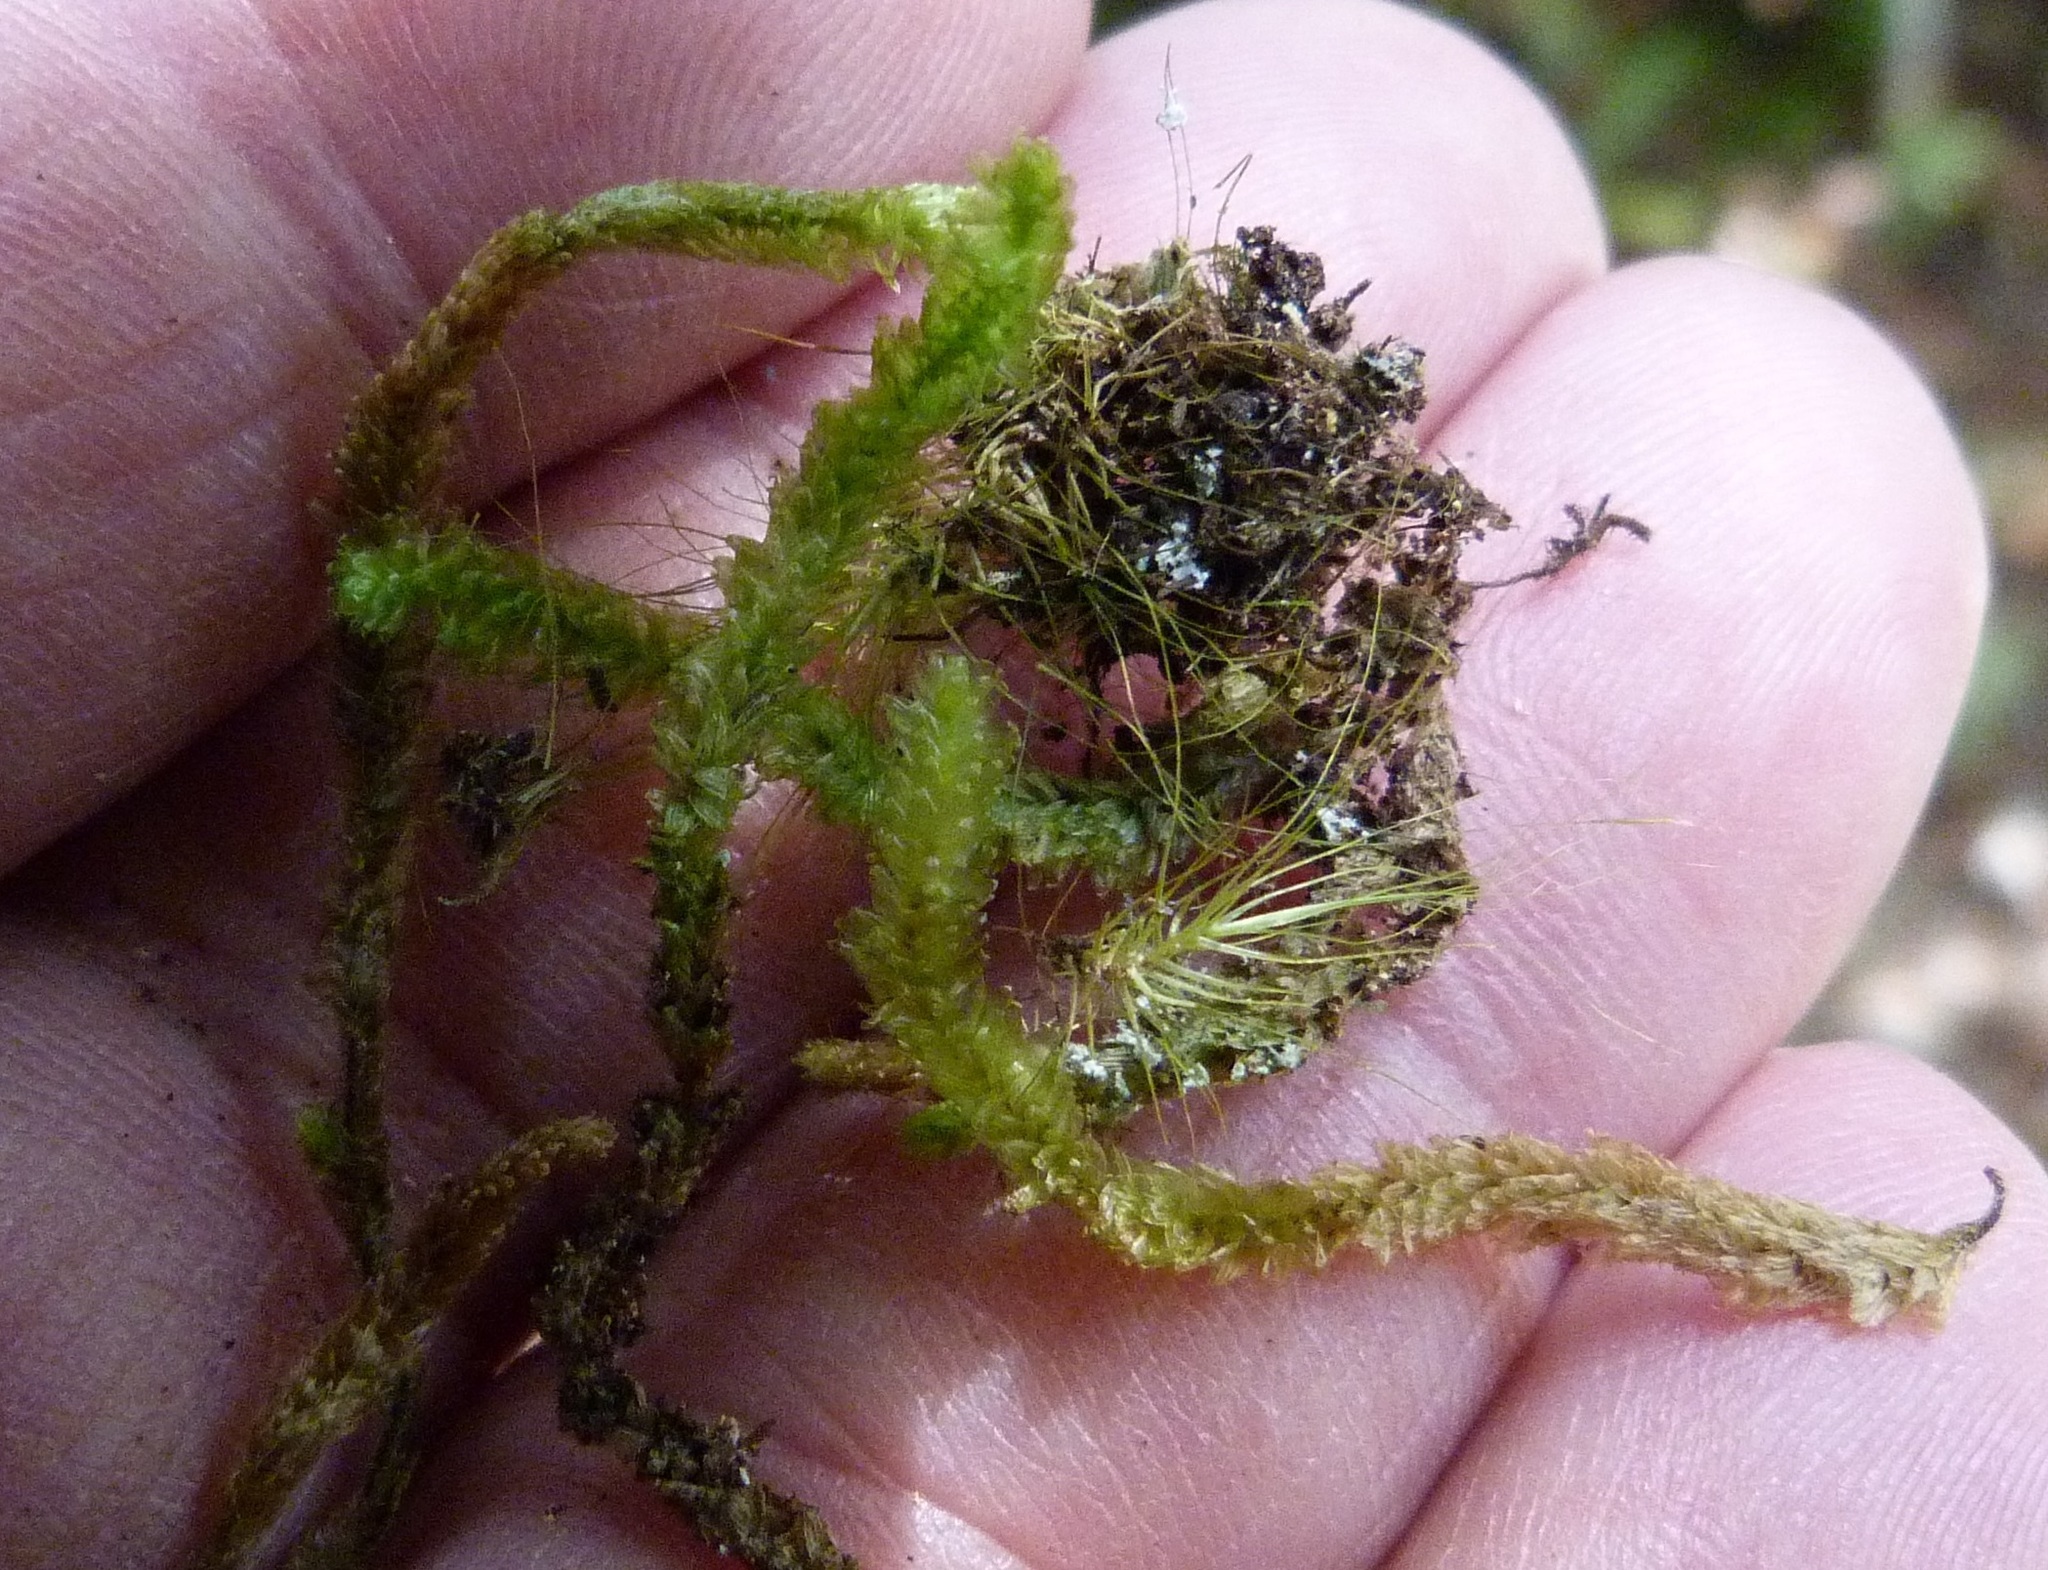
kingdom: Plantae
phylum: Bryophyta
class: Bryopsida
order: Ptychomniales
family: Ptychomniaceae
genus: Cladomnion
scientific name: Cladomnion ericoides
